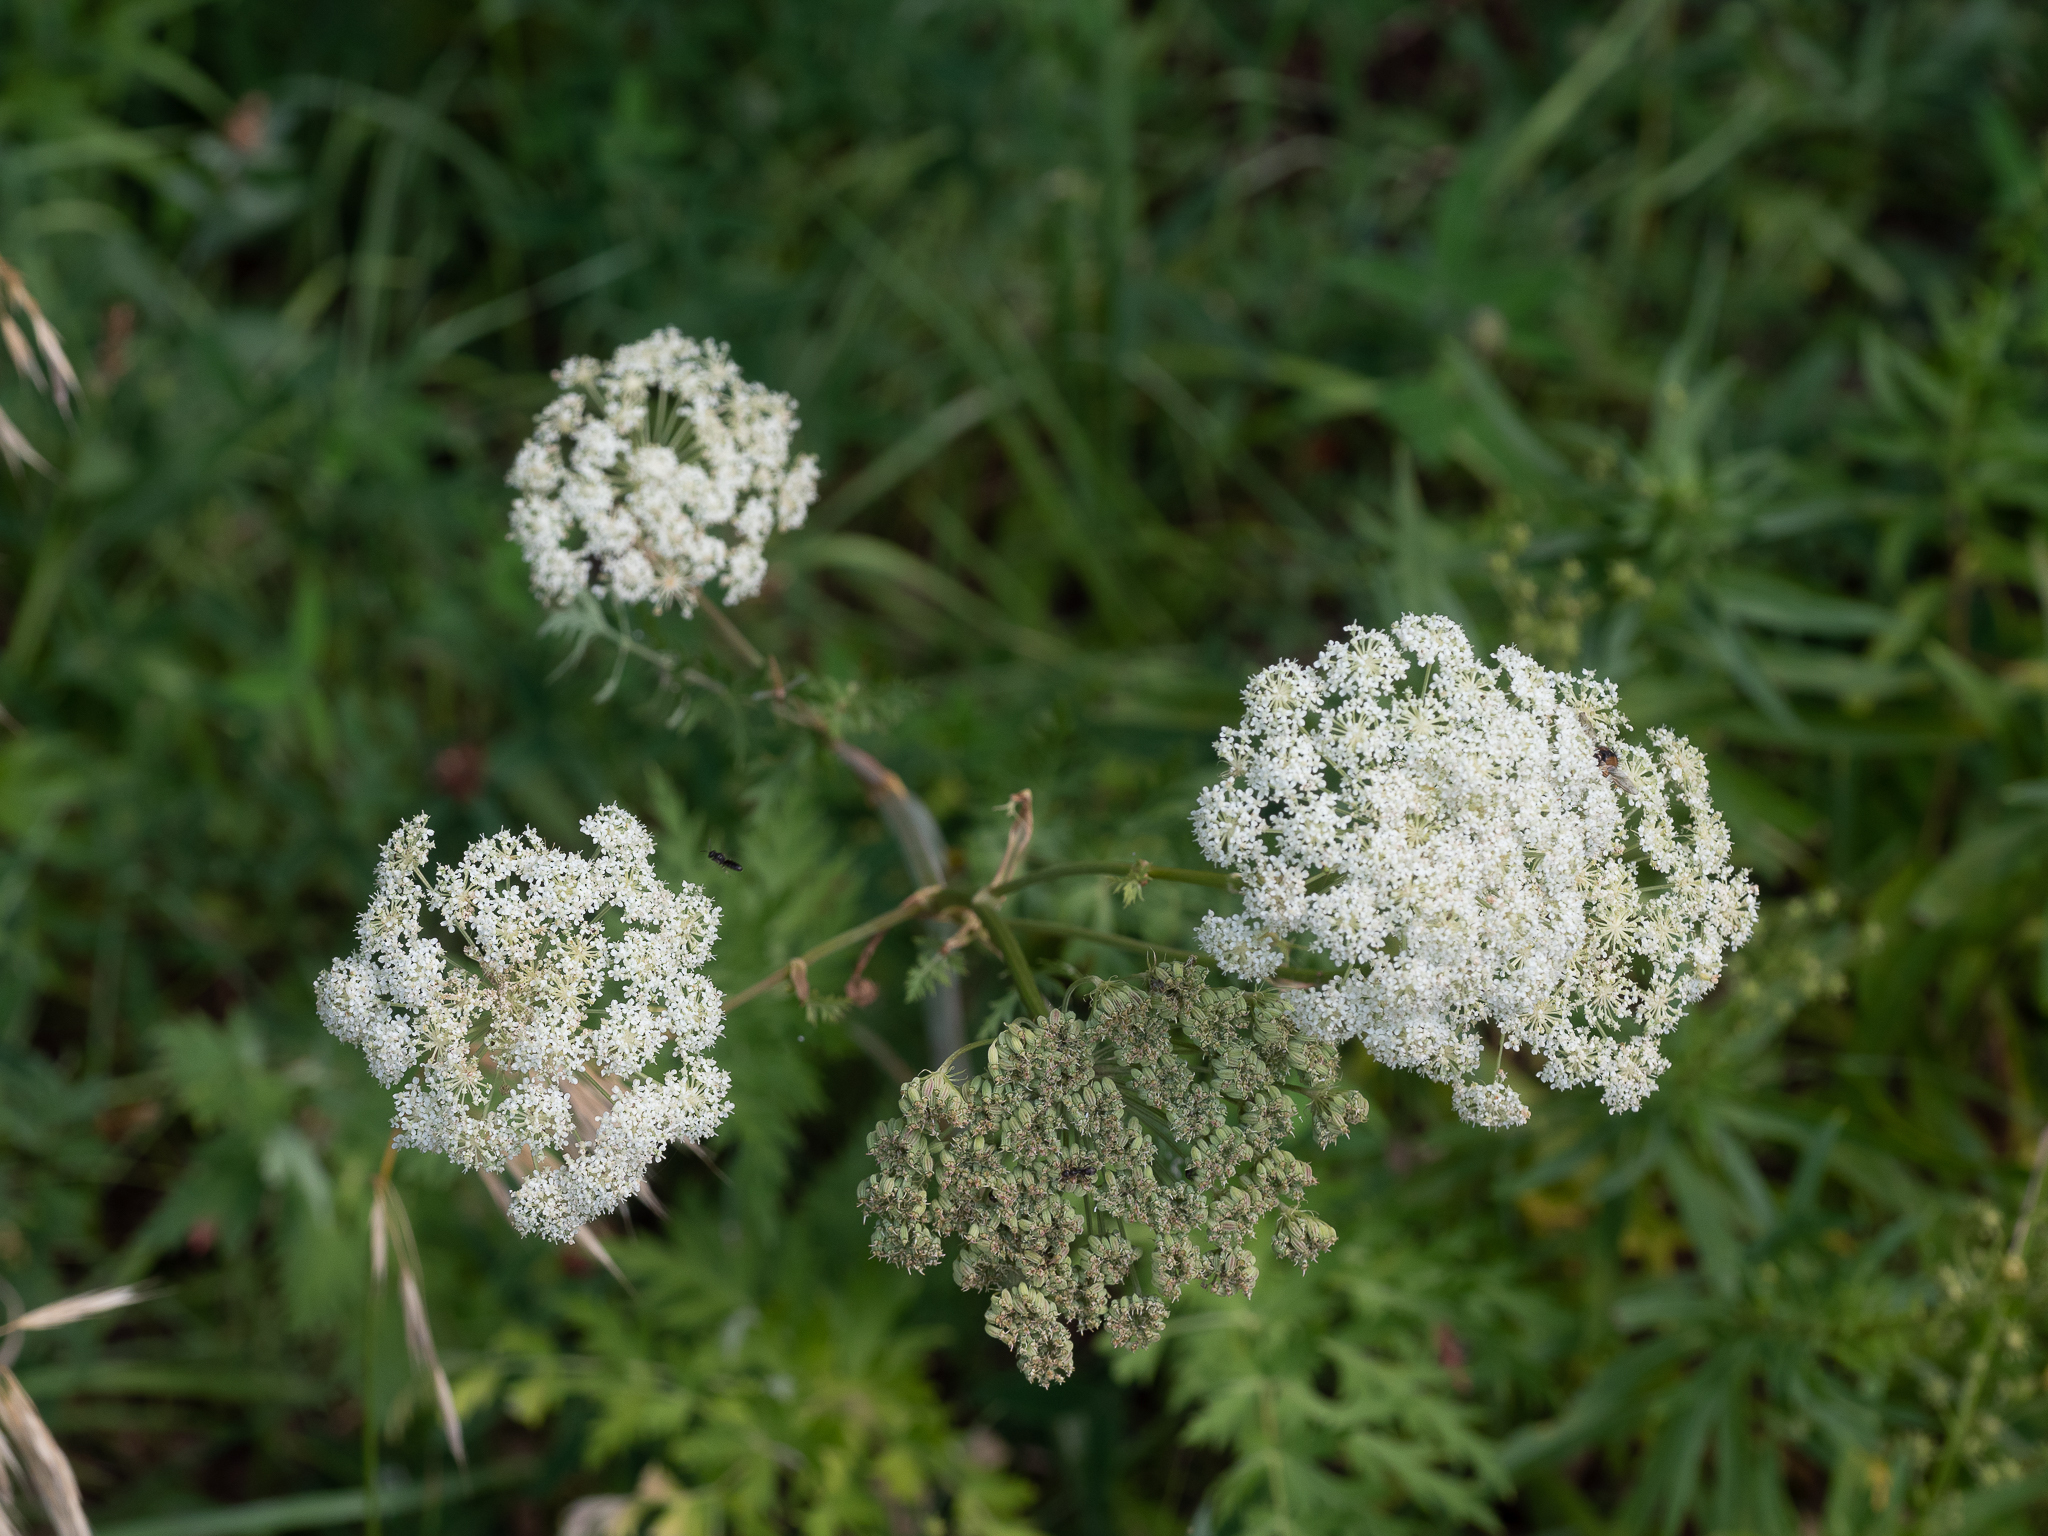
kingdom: Plantae
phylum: Tracheophyta
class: Magnoliopsida
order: Apiales
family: Apiaceae
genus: Seseli
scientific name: Seseli libanotis
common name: Mooncarrot
